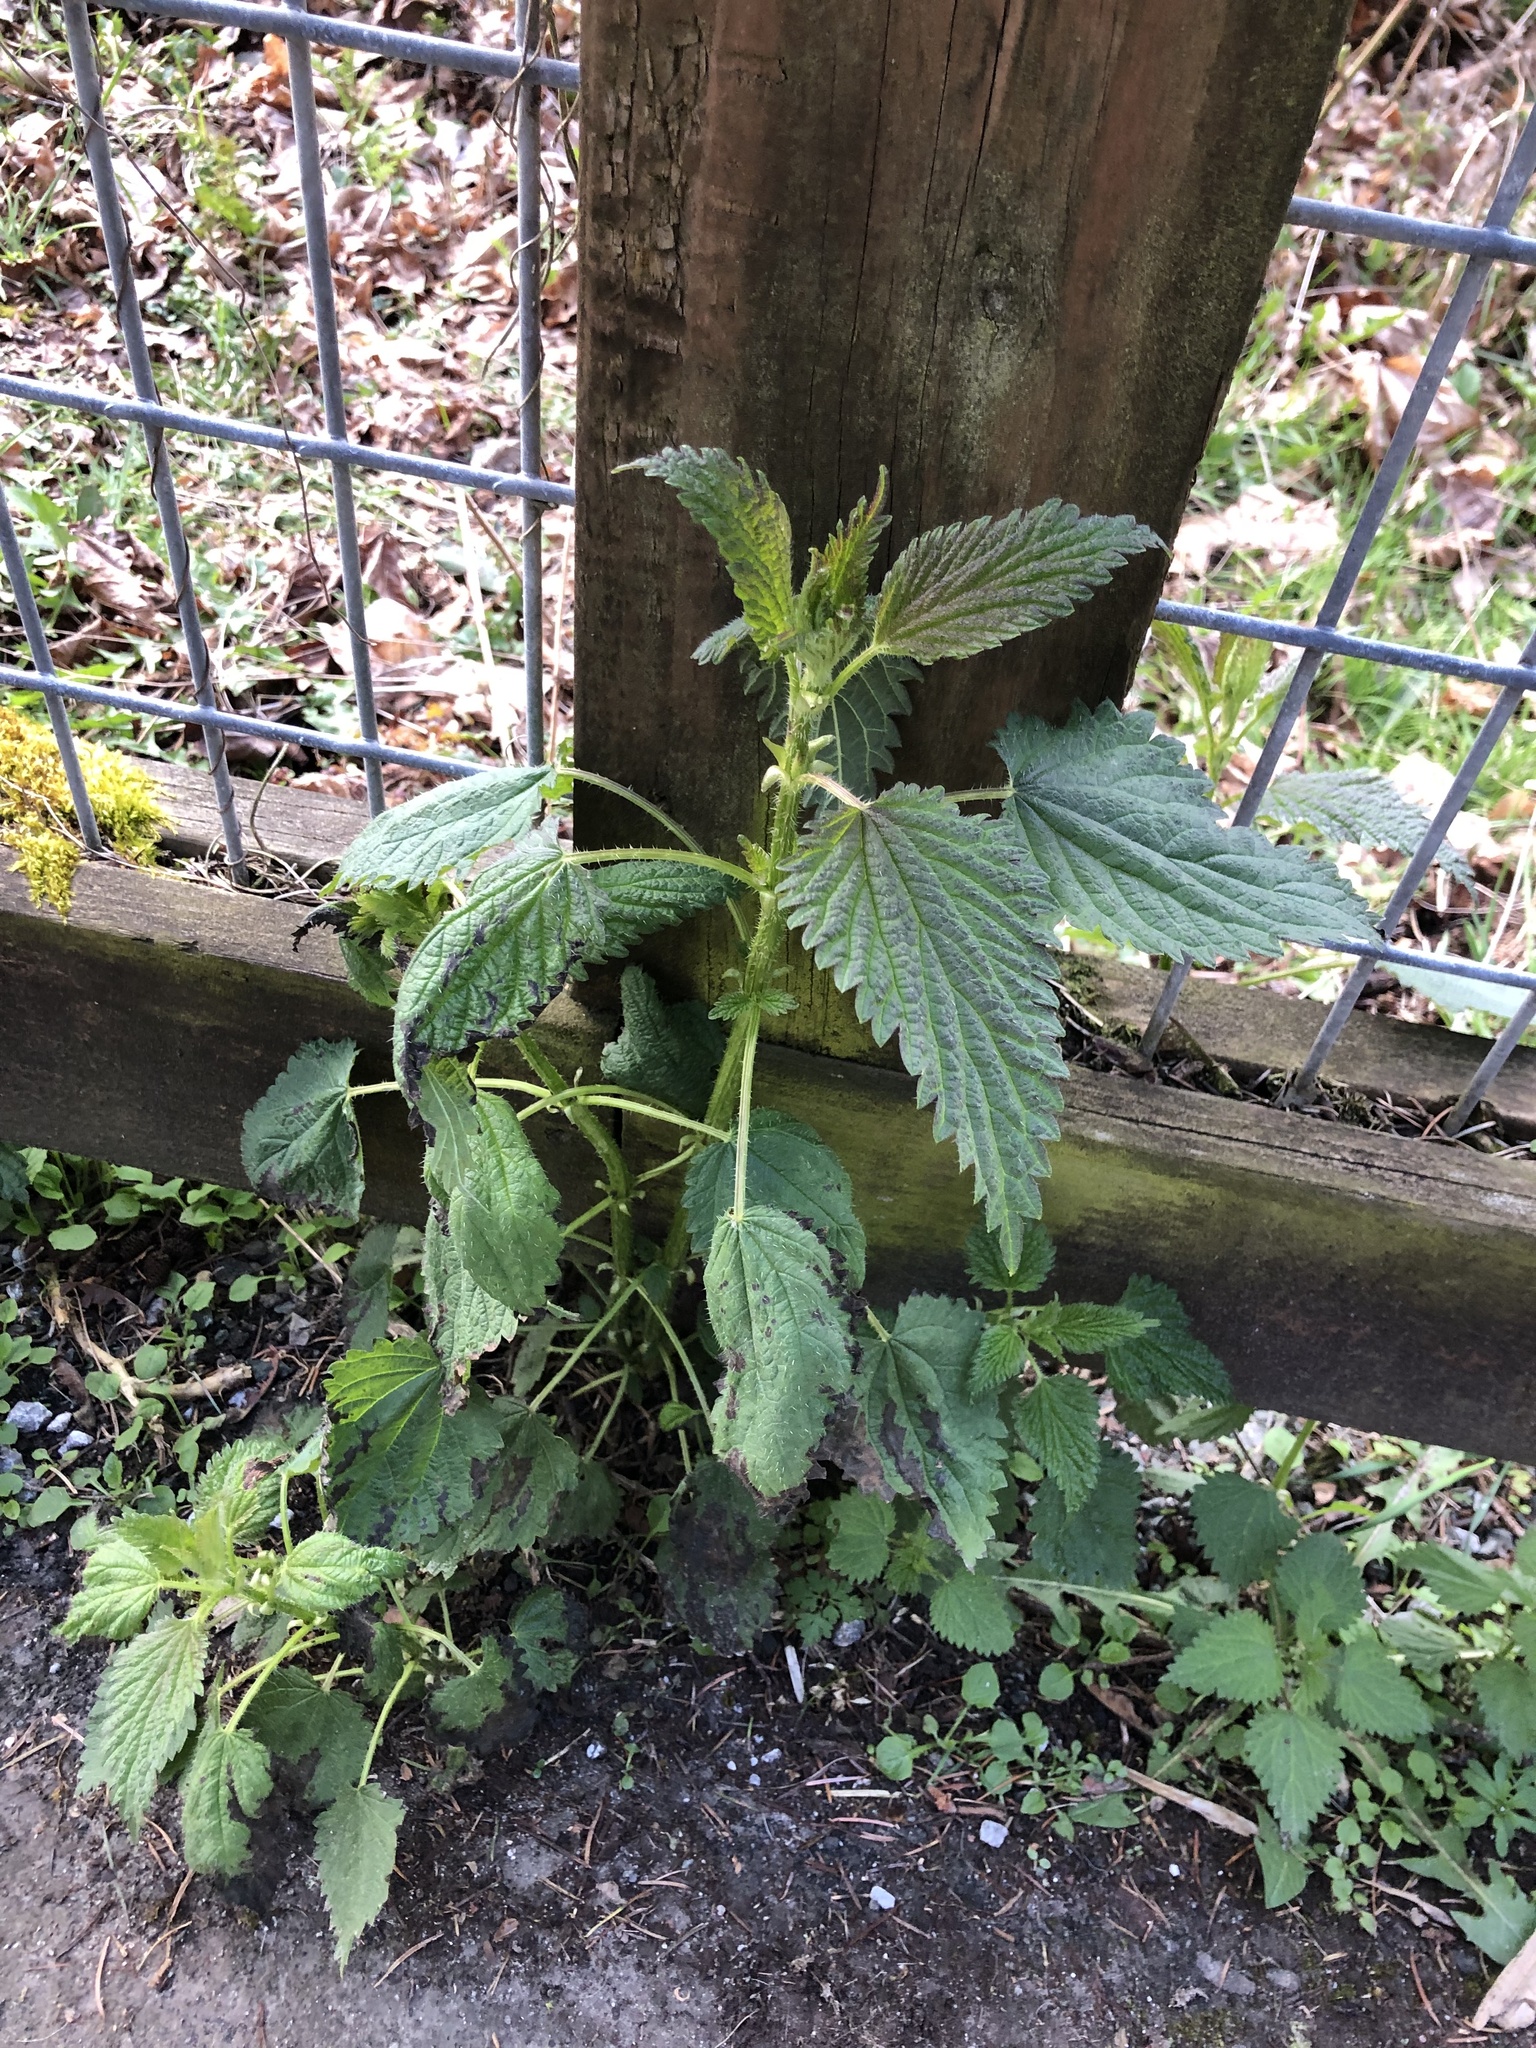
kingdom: Plantae
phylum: Tracheophyta
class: Magnoliopsida
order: Rosales
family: Urticaceae
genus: Urtica
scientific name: Urtica dioica
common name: Common nettle
